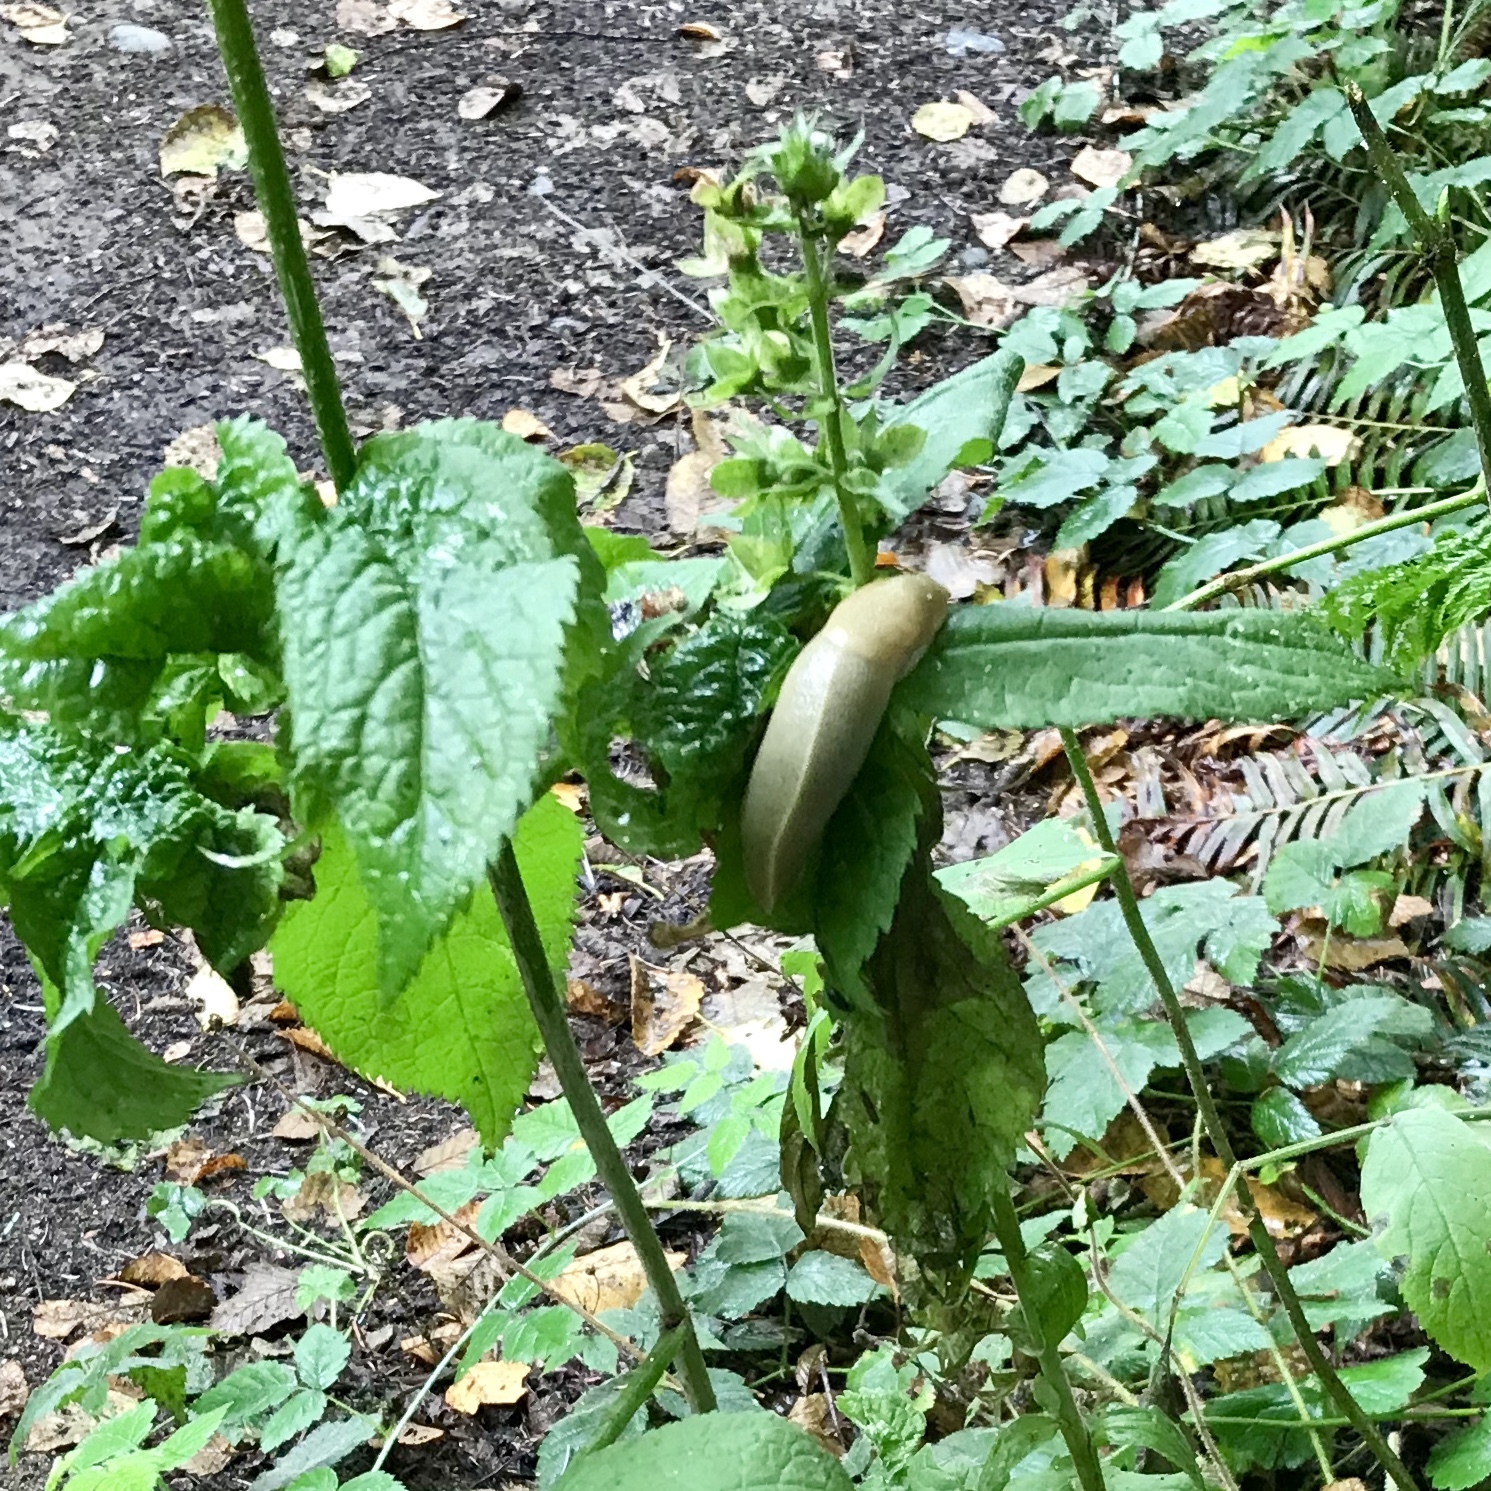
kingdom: Animalia
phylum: Mollusca
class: Gastropoda
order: Stylommatophora
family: Ariolimacidae
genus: Ariolimax
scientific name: Ariolimax columbianus
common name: Pacific banana slug
